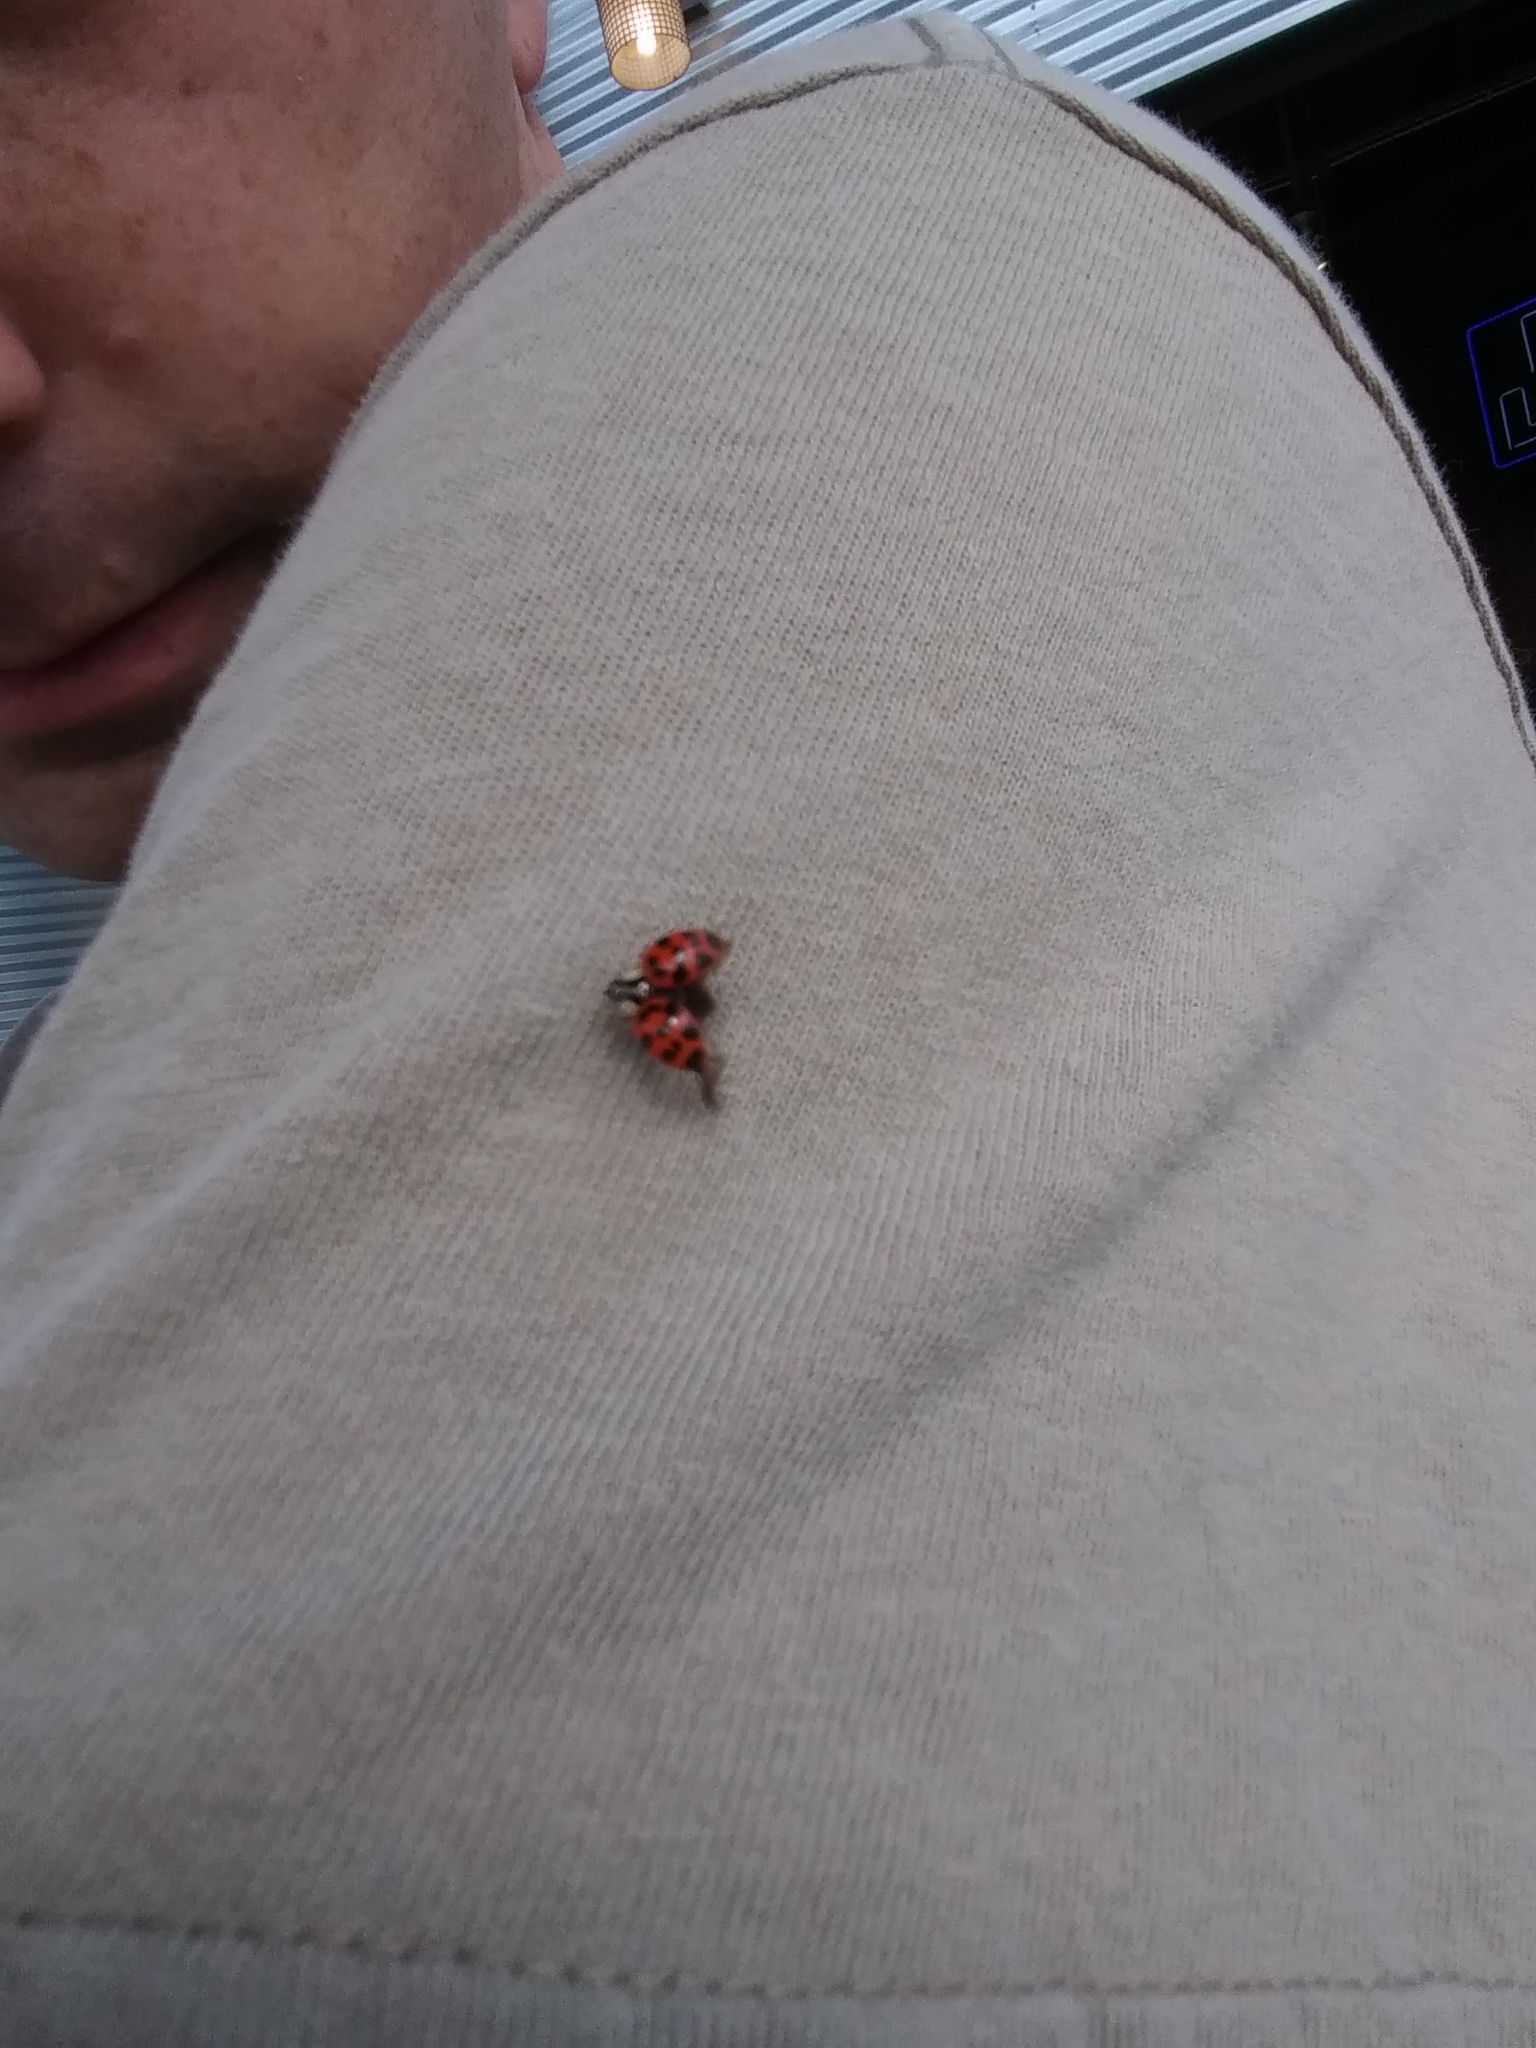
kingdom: Animalia
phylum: Arthropoda
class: Insecta
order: Coleoptera
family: Coccinellidae
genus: Harmonia
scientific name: Harmonia axyridis
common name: Harlequin ladybird
